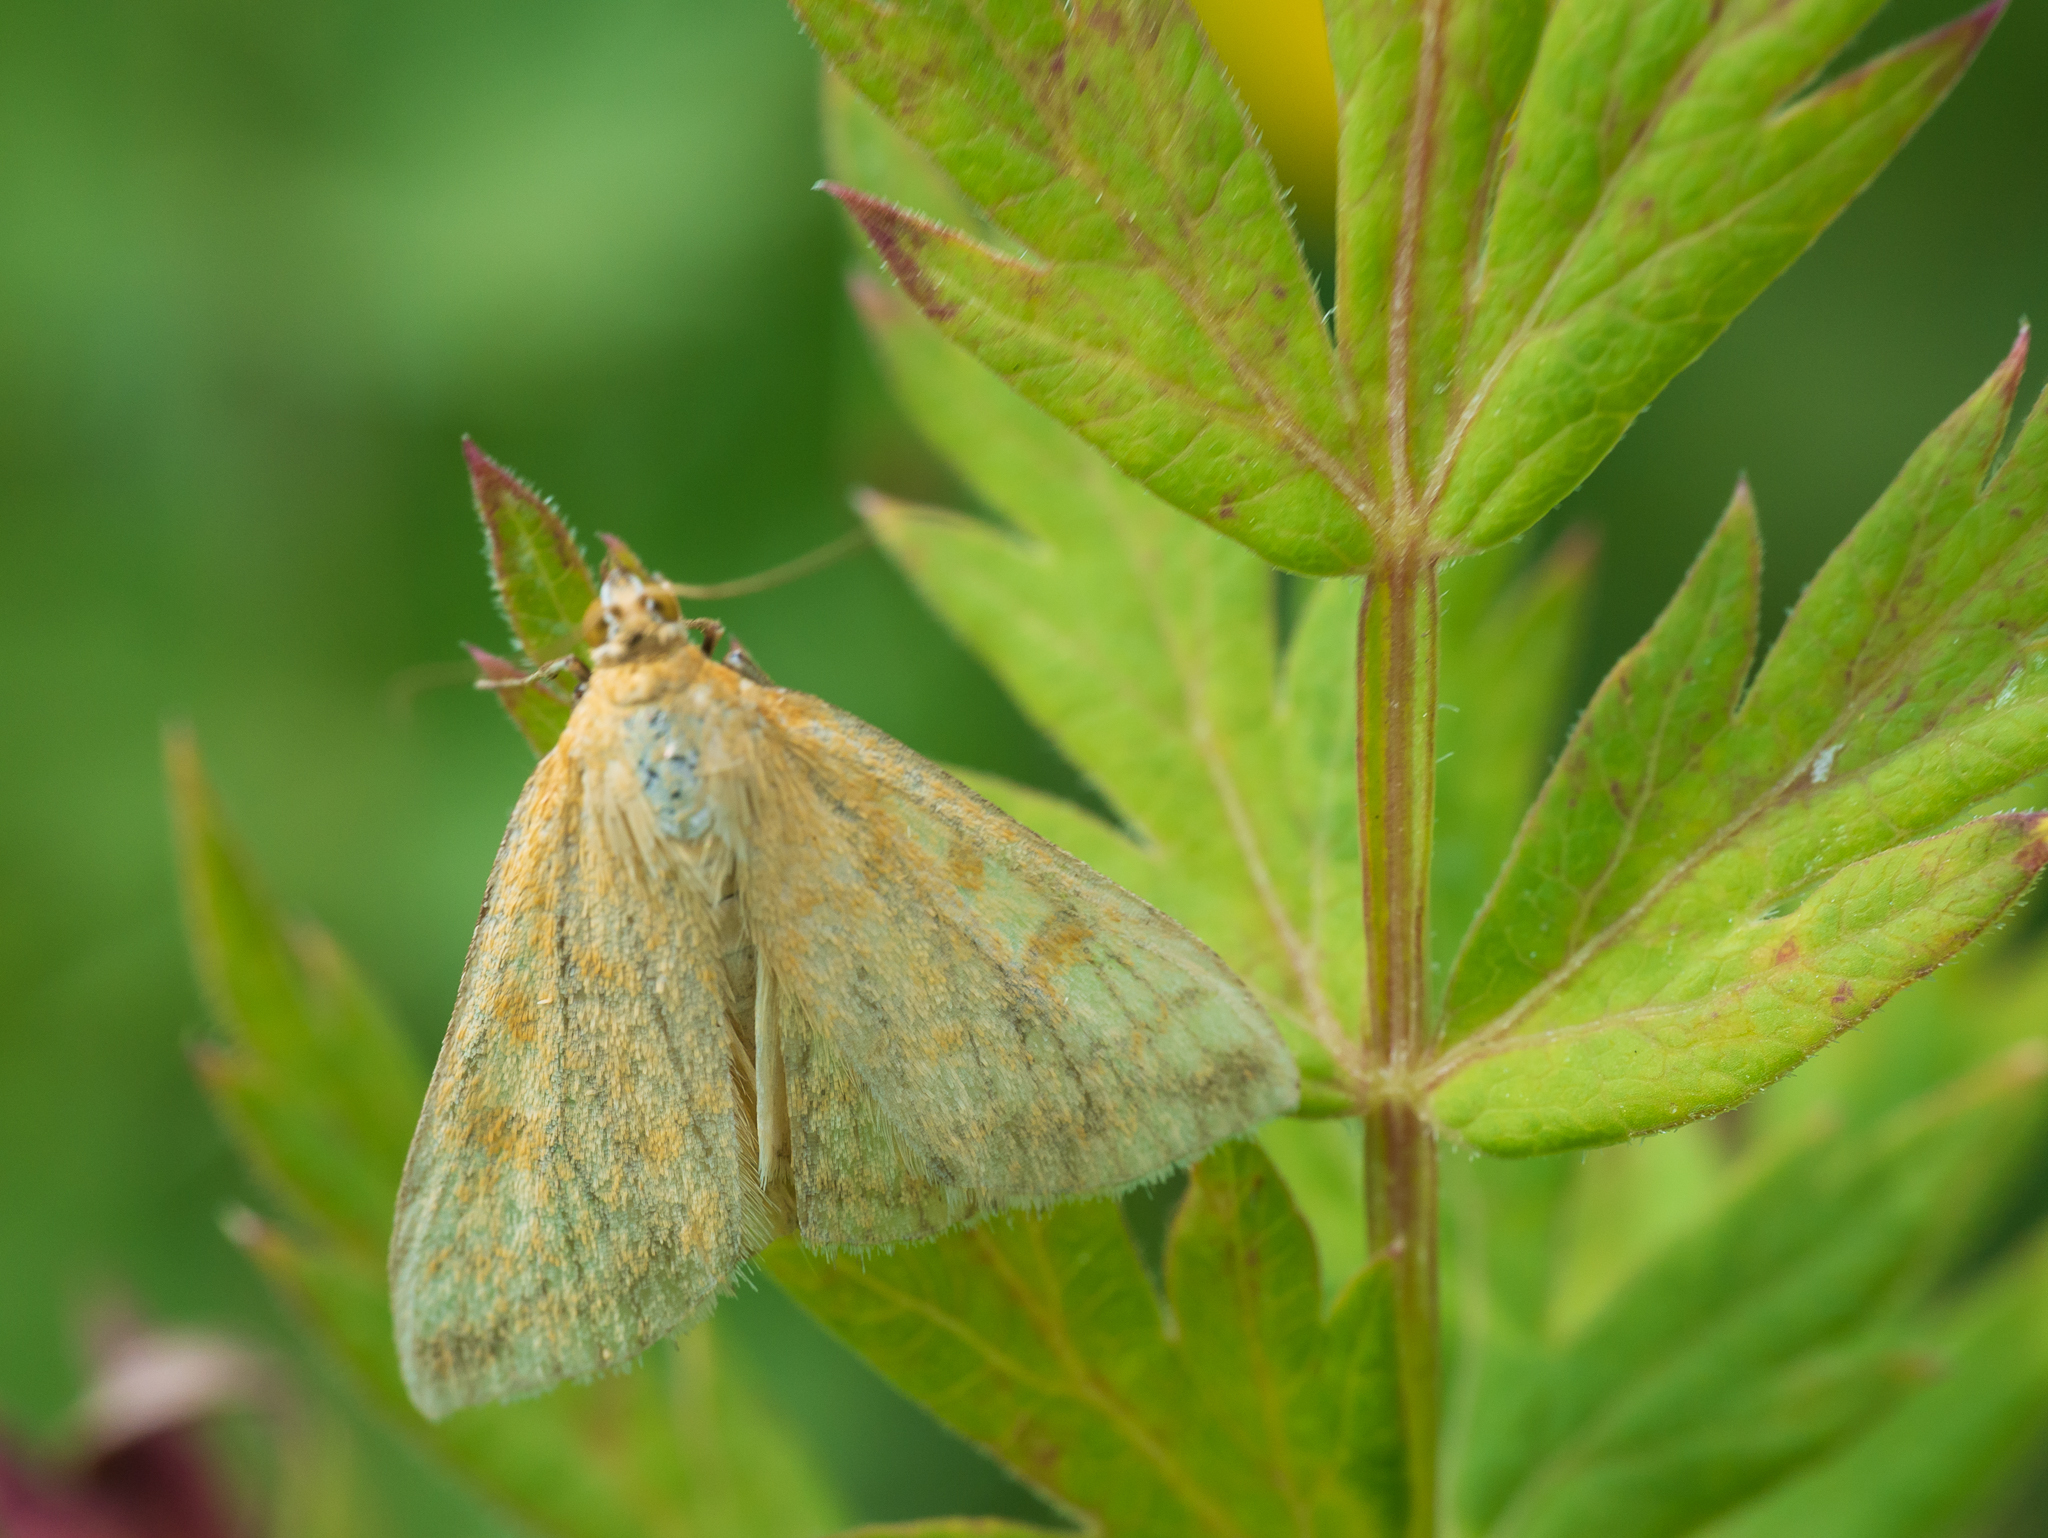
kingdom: Animalia
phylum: Arthropoda
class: Insecta
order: Lepidoptera
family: Crambidae
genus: Sitochroa
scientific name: Sitochroa verticalis
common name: Lesser pearl
